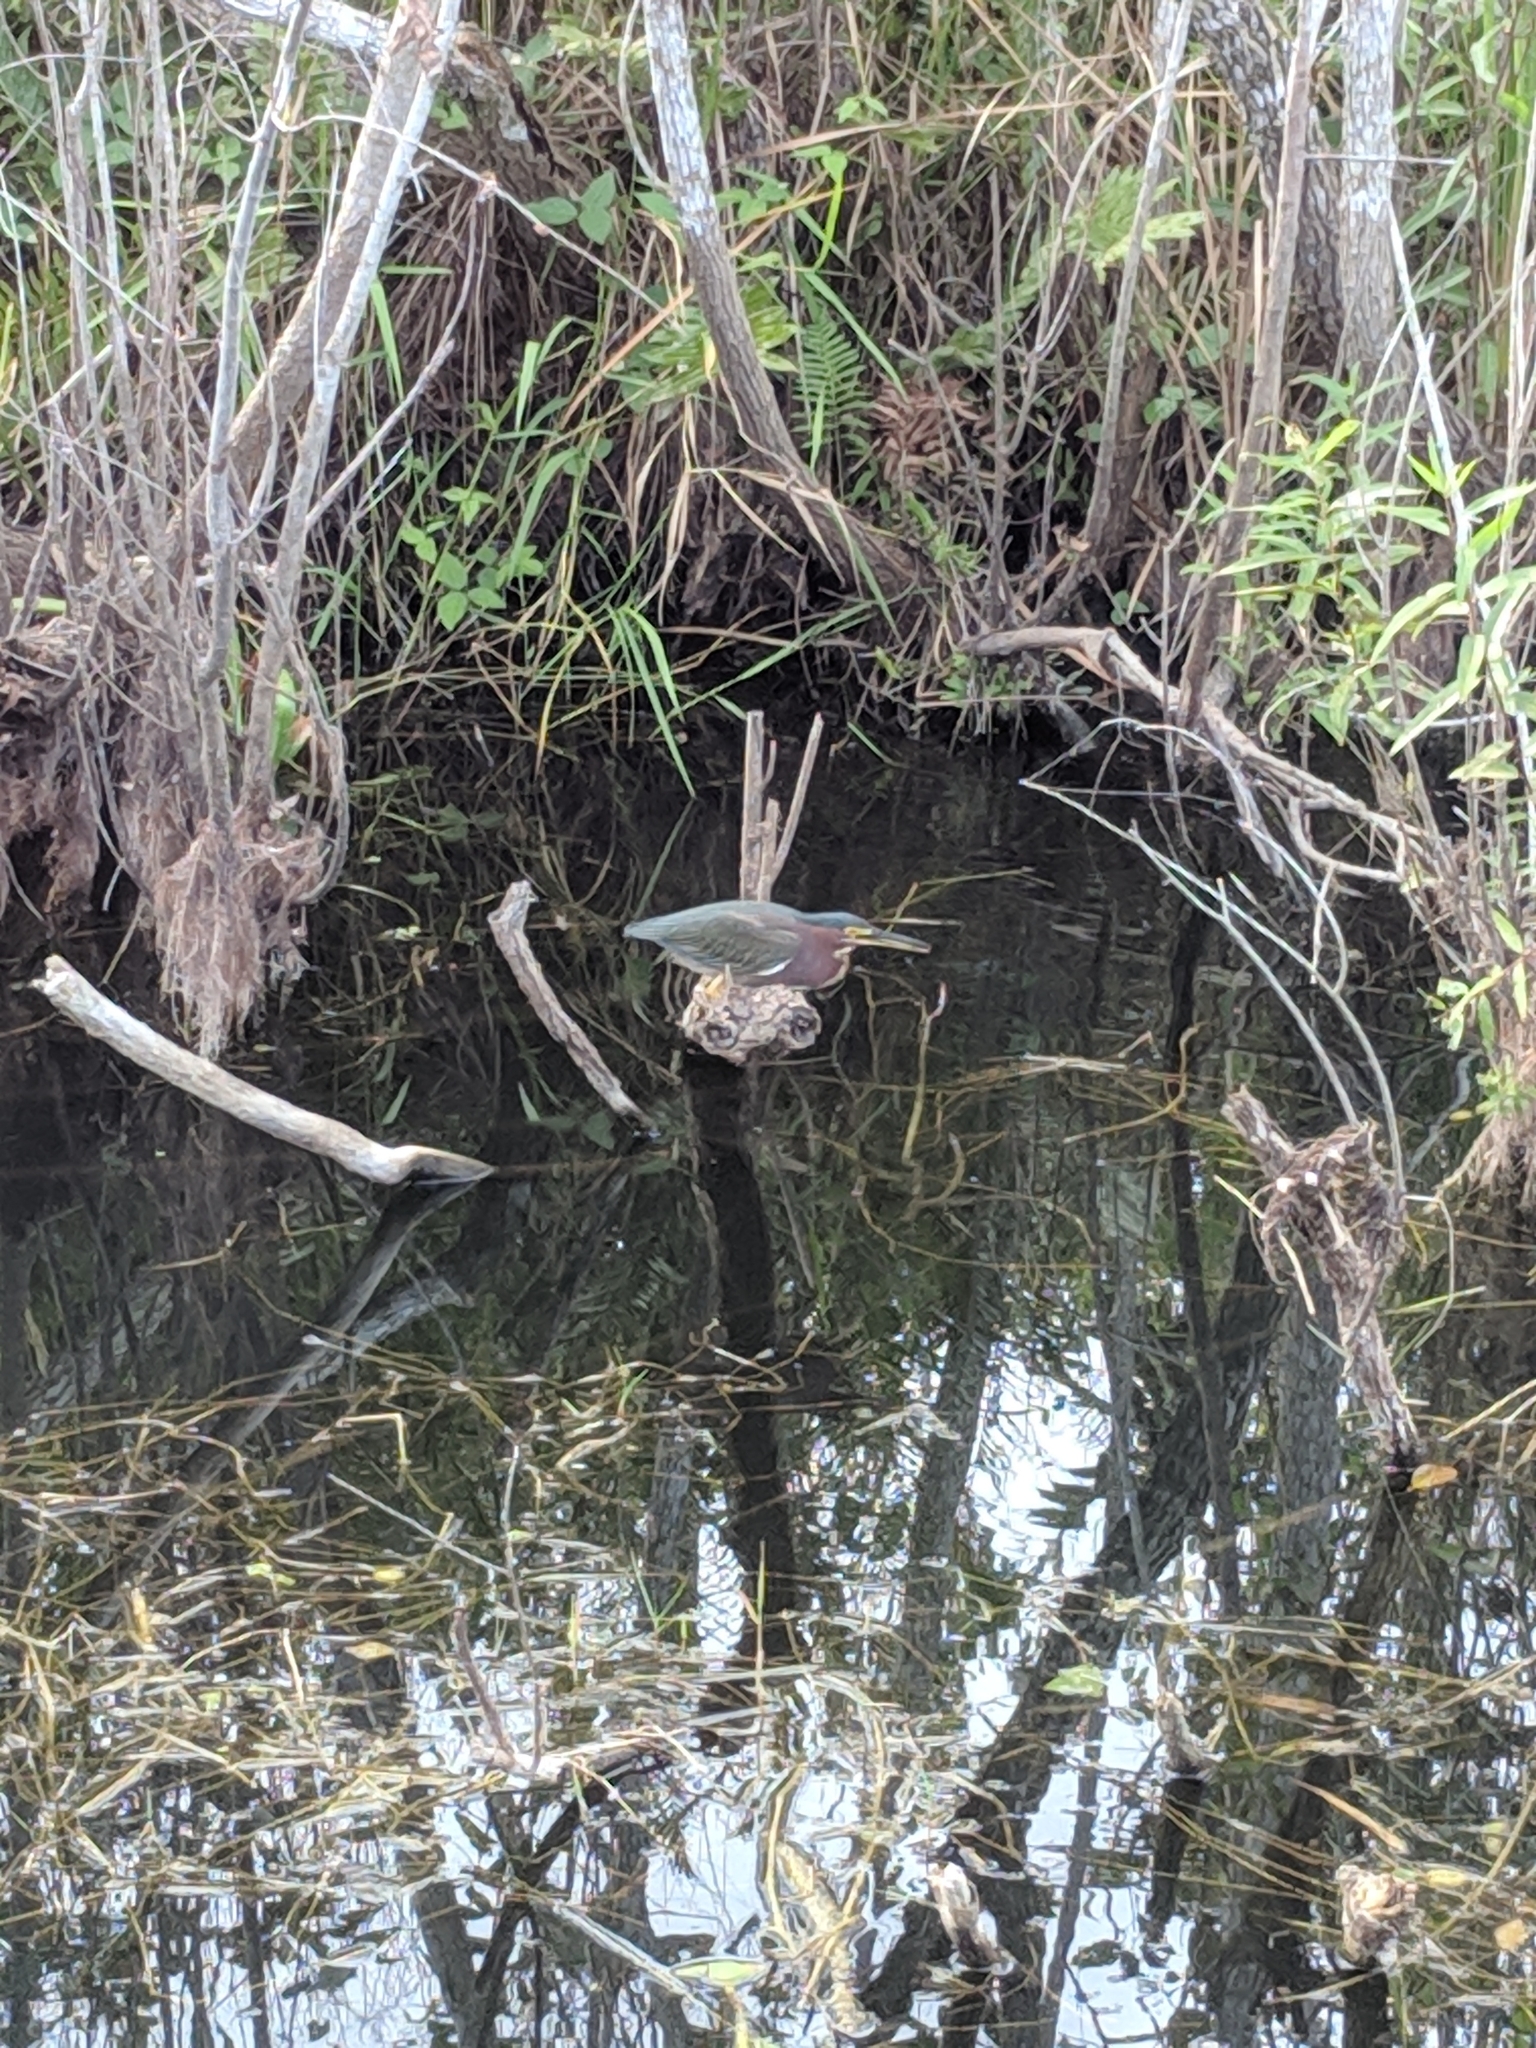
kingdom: Animalia
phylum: Chordata
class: Aves
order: Pelecaniformes
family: Ardeidae
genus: Butorides
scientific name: Butorides virescens
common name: Green heron
